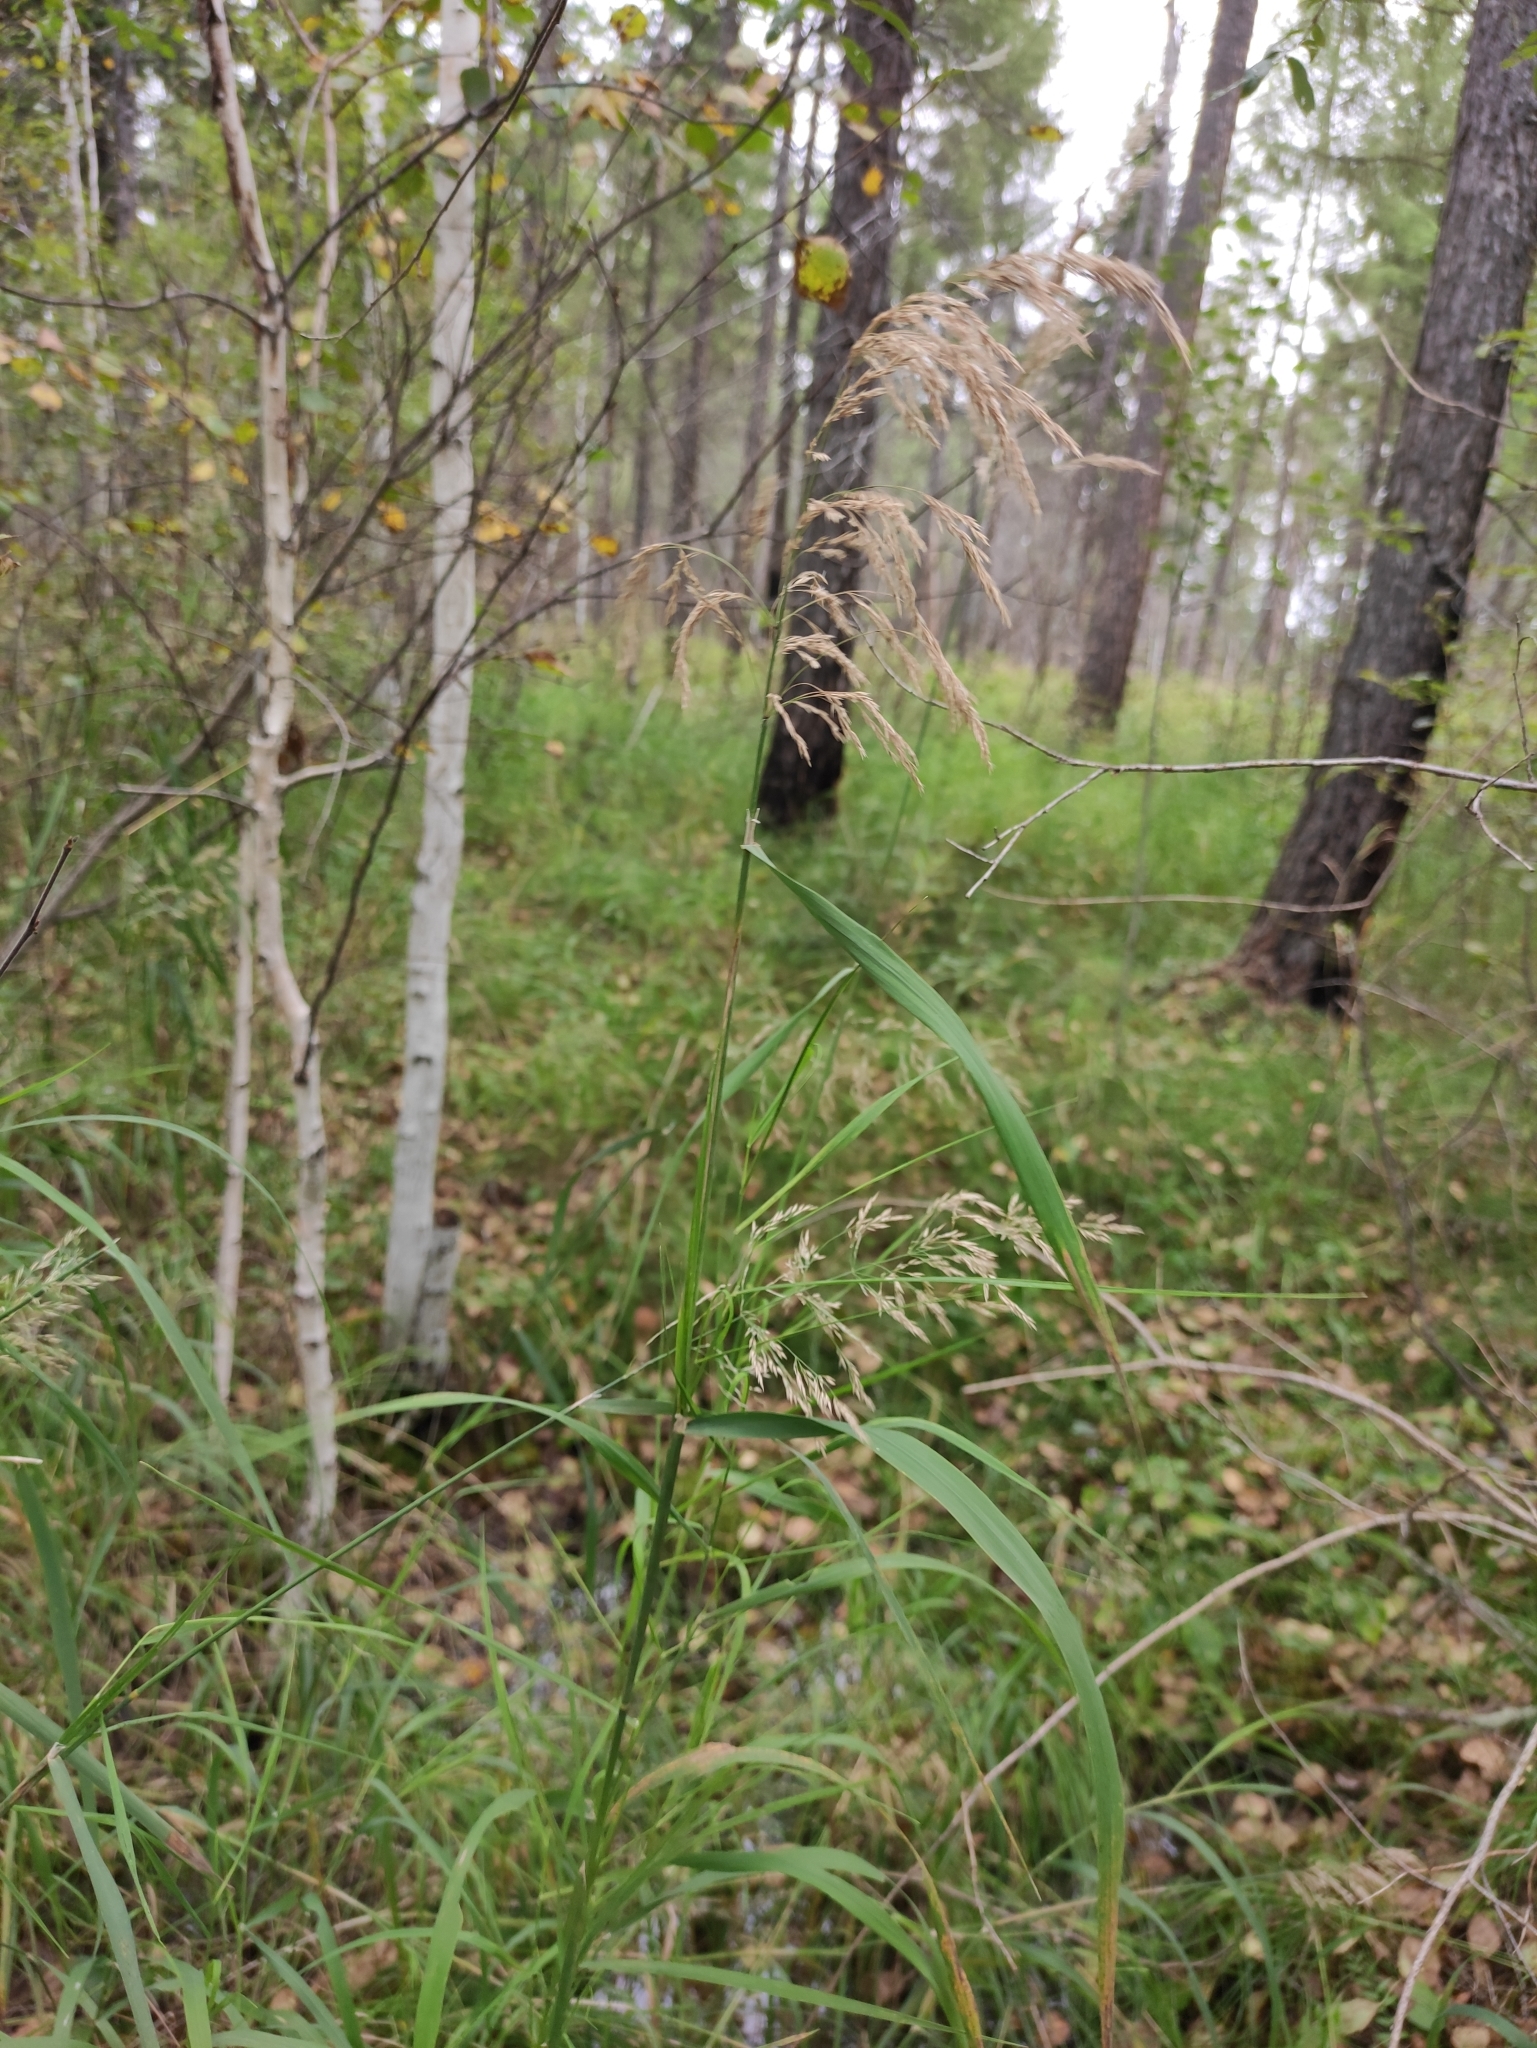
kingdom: Plantae
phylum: Tracheophyta
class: Liliopsida
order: Poales
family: Poaceae
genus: Calamagrostis
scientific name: Calamagrostis purpurea
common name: Scandinavian small-reed
